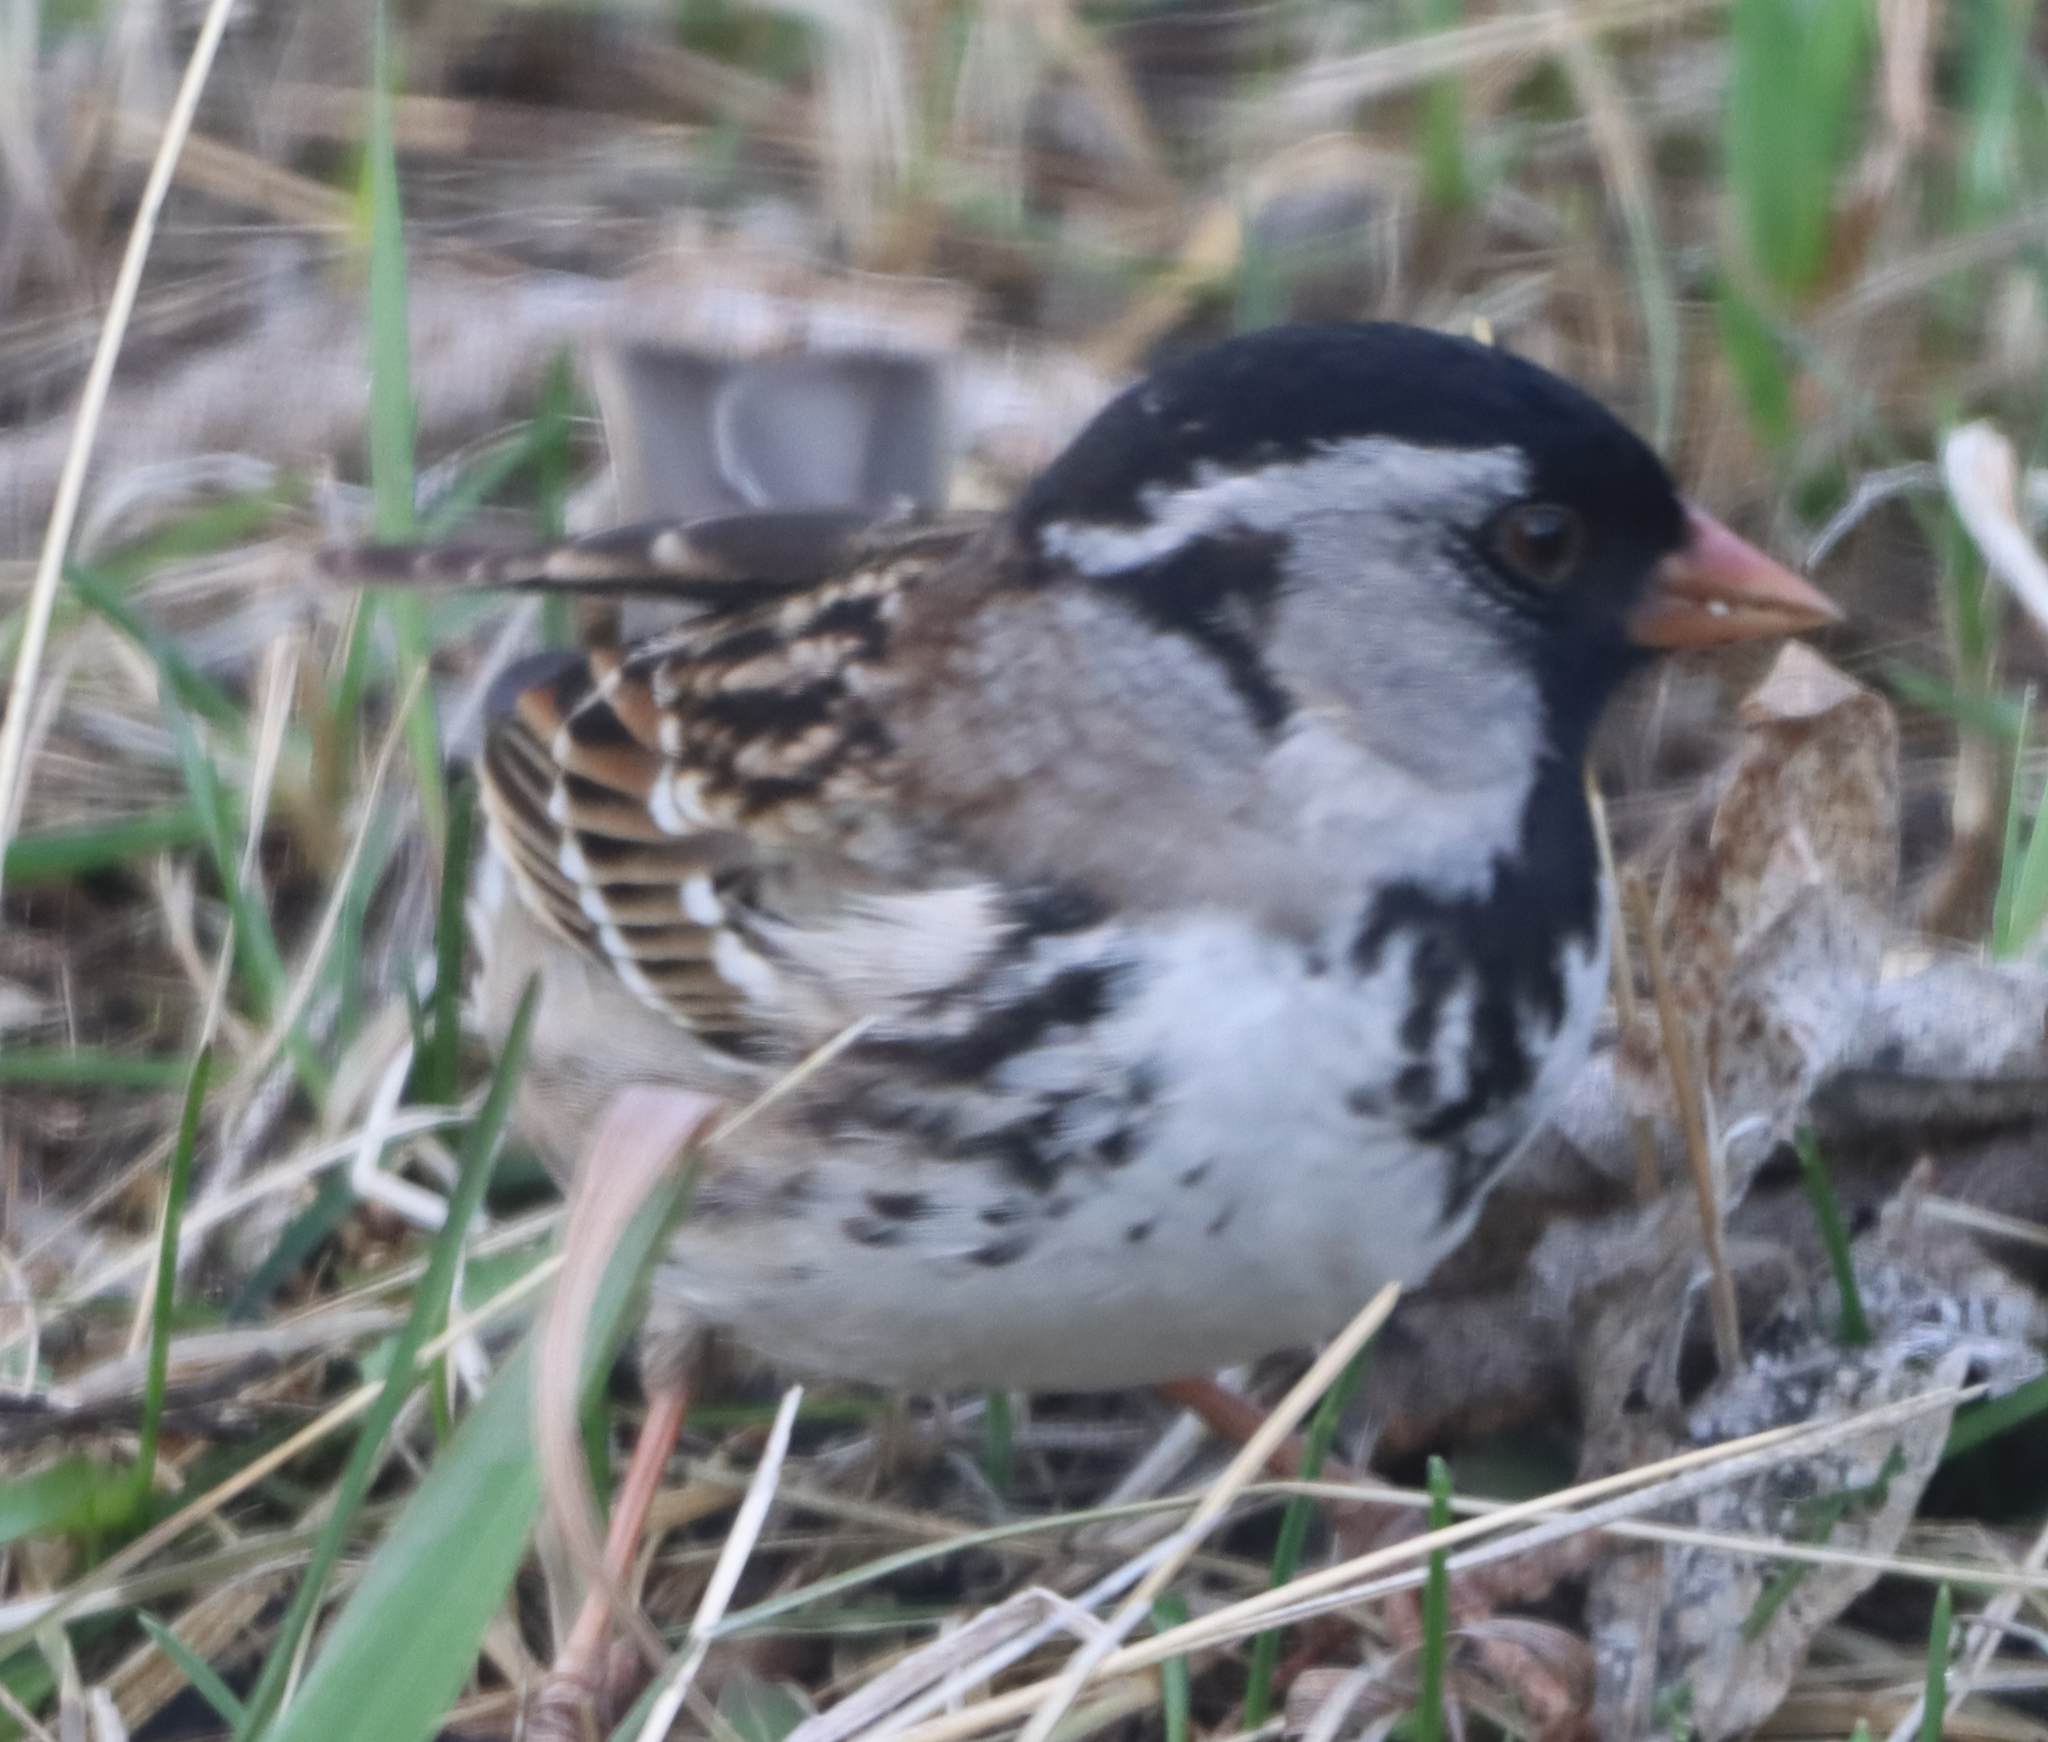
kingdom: Animalia
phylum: Chordata
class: Aves
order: Passeriformes
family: Passerellidae
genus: Zonotrichia
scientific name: Zonotrichia querula
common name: Harris's sparrow
